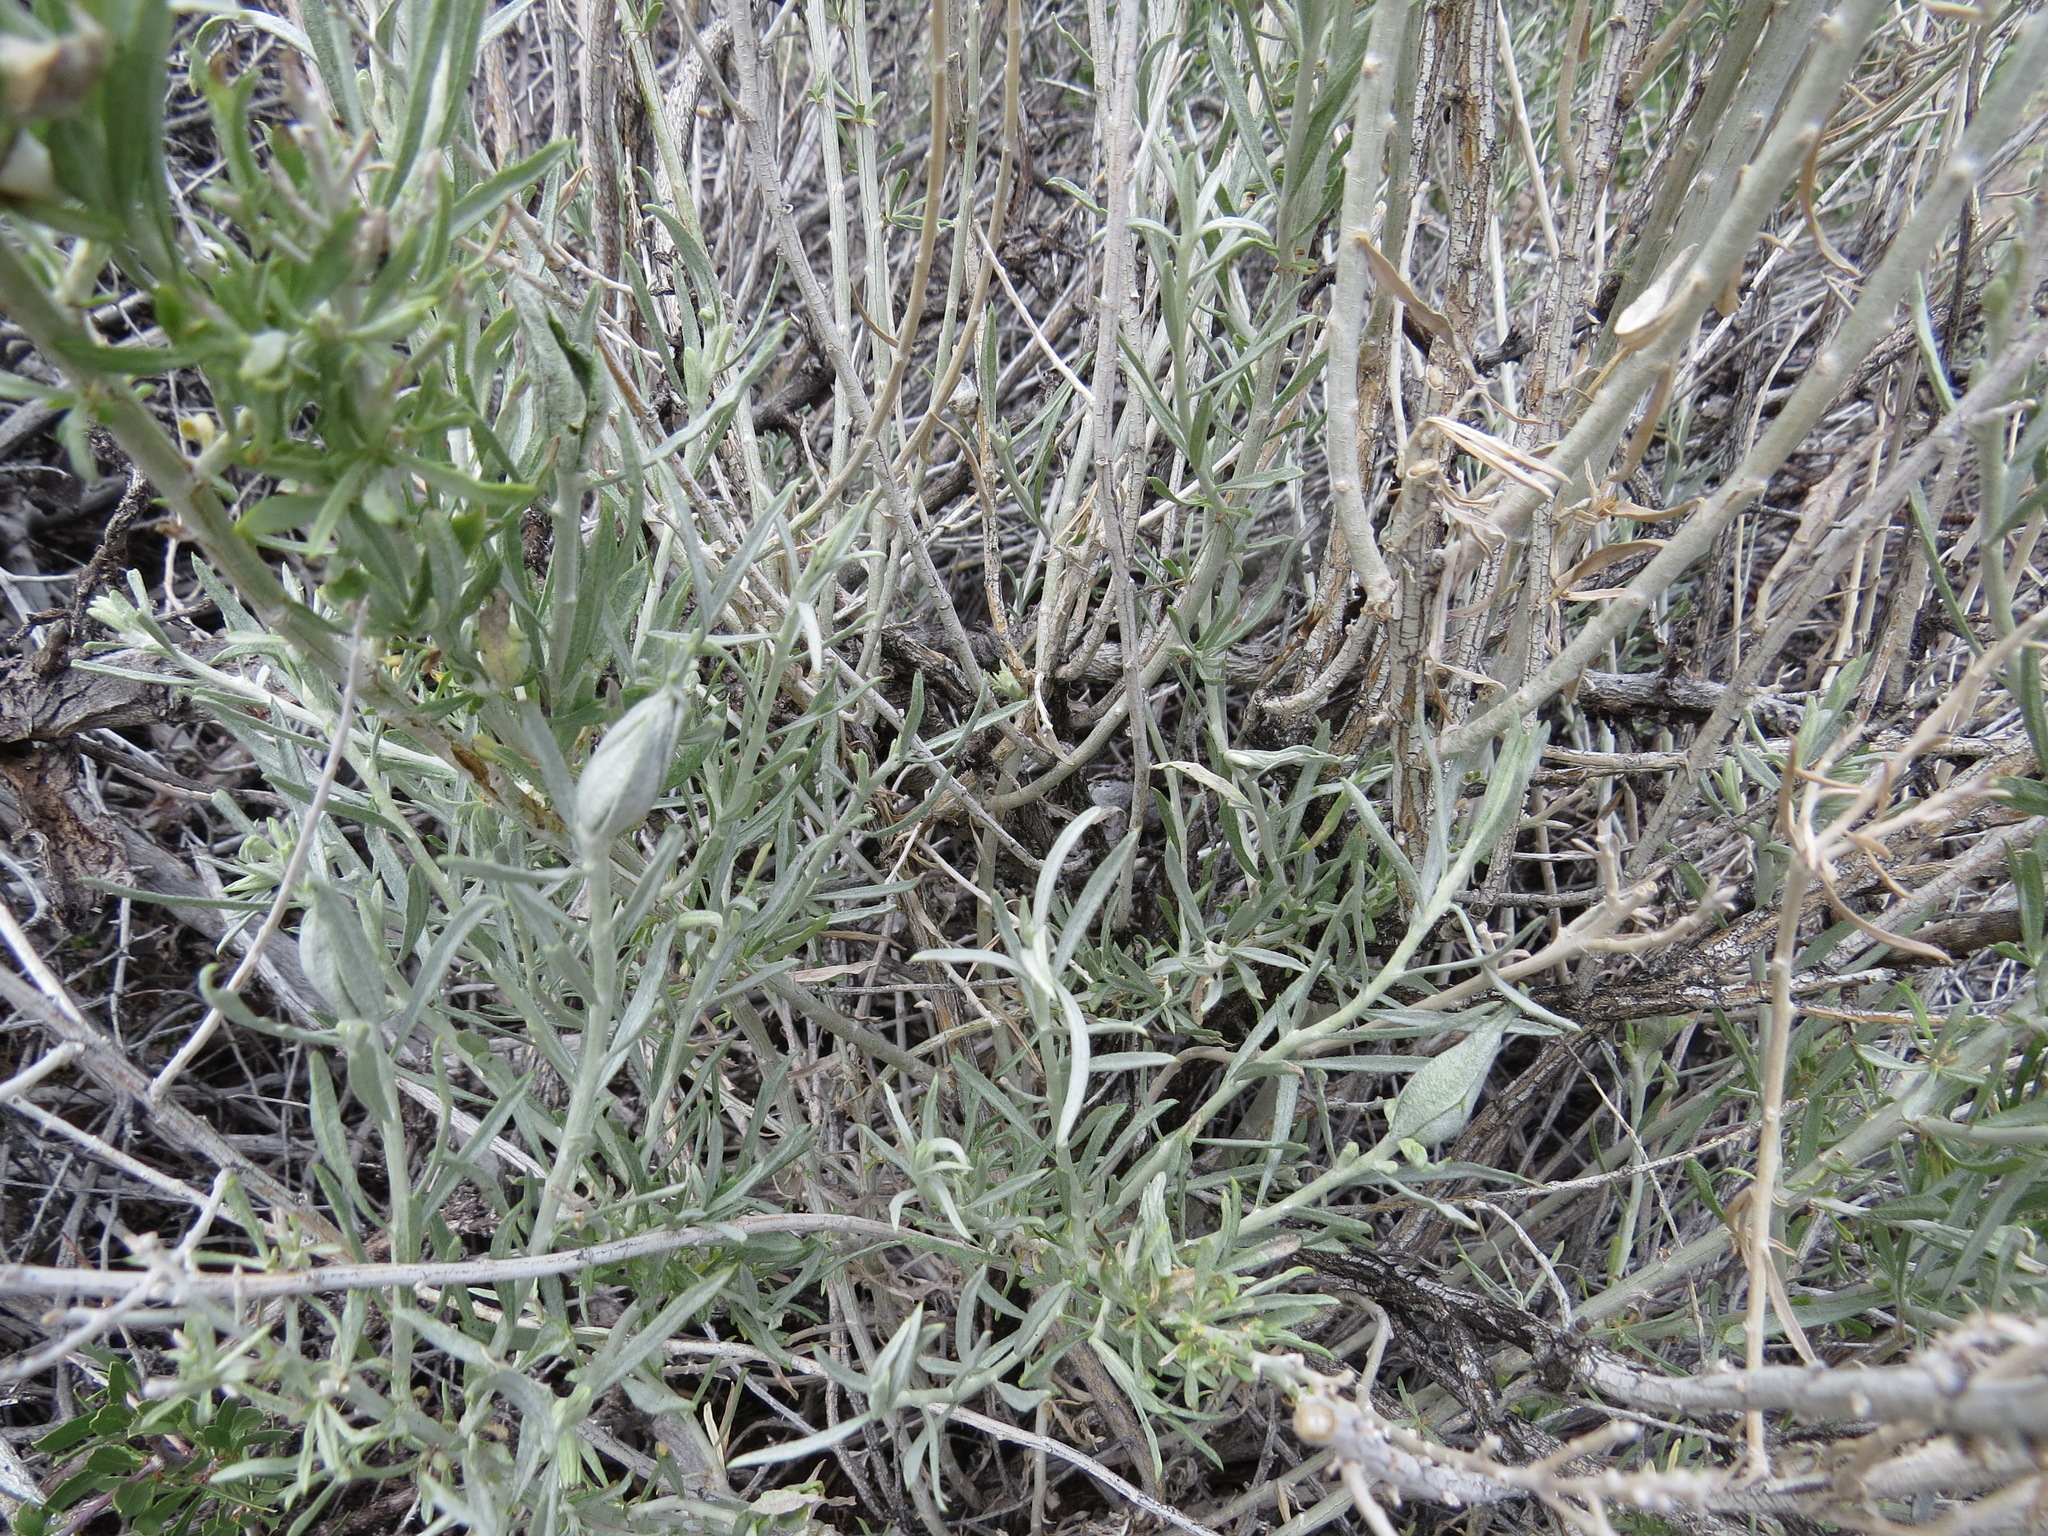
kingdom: Animalia
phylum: Arthropoda
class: Insecta
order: Lepidoptera
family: Gelechiidae
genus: Gnorimoschema
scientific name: Gnorimoschema octomaculella
